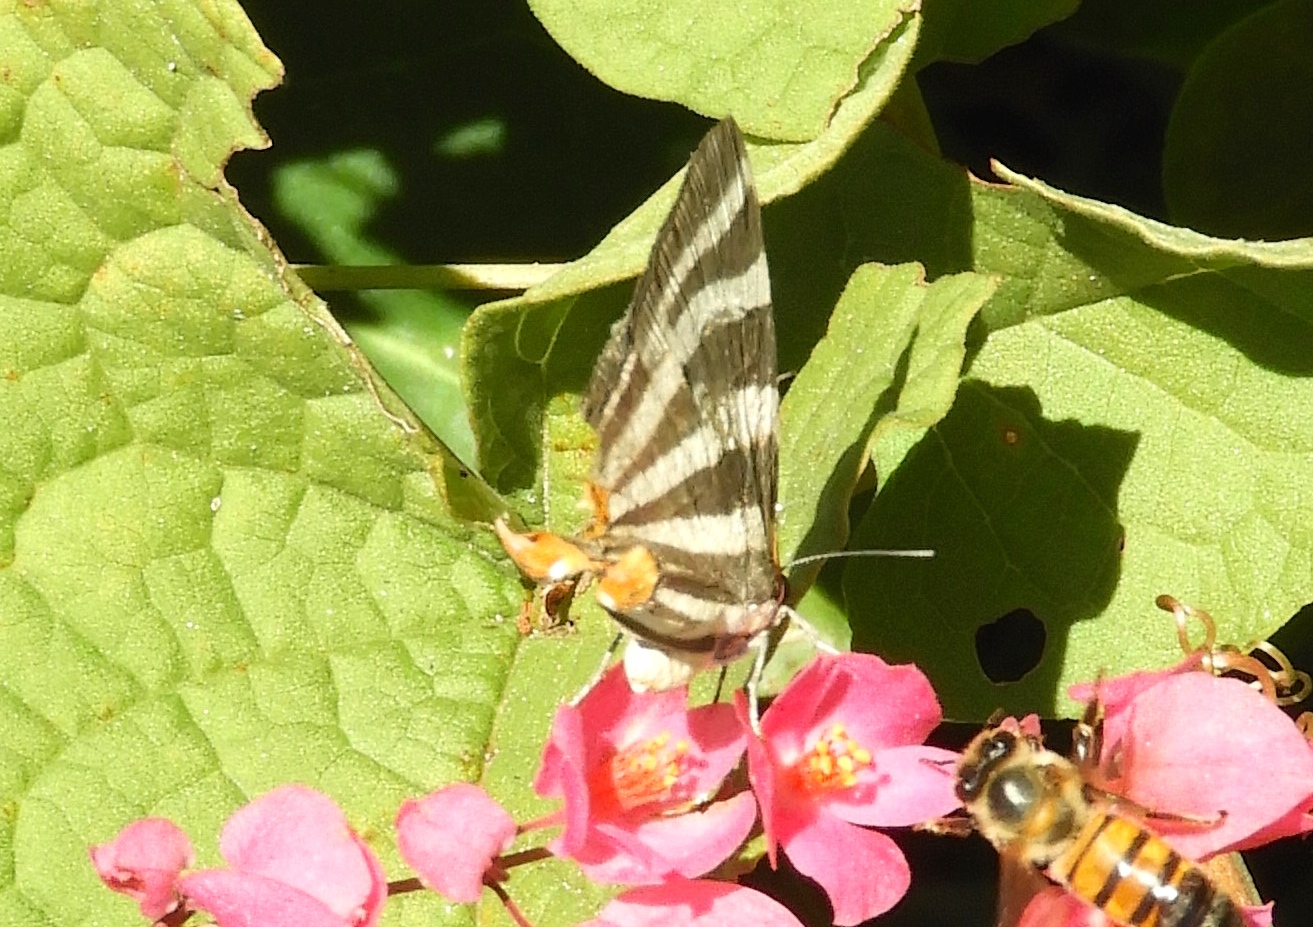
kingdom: Animalia
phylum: Arthropoda
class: Insecta
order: Lepidoptera
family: Lycaenidae
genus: Thecla
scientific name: Thecla bathildis
